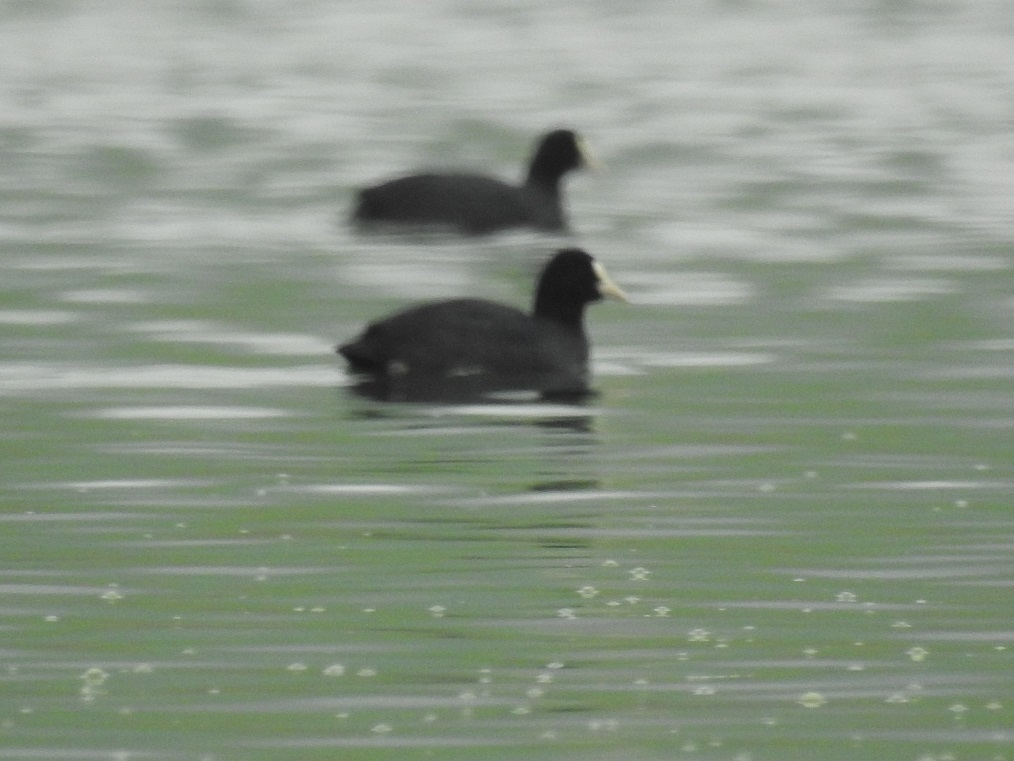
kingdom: Animalia
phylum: Chordata
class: Aves
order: Gruiformes
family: Rallidae
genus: Fulica
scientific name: Fulica atra
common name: Eurasian coot
